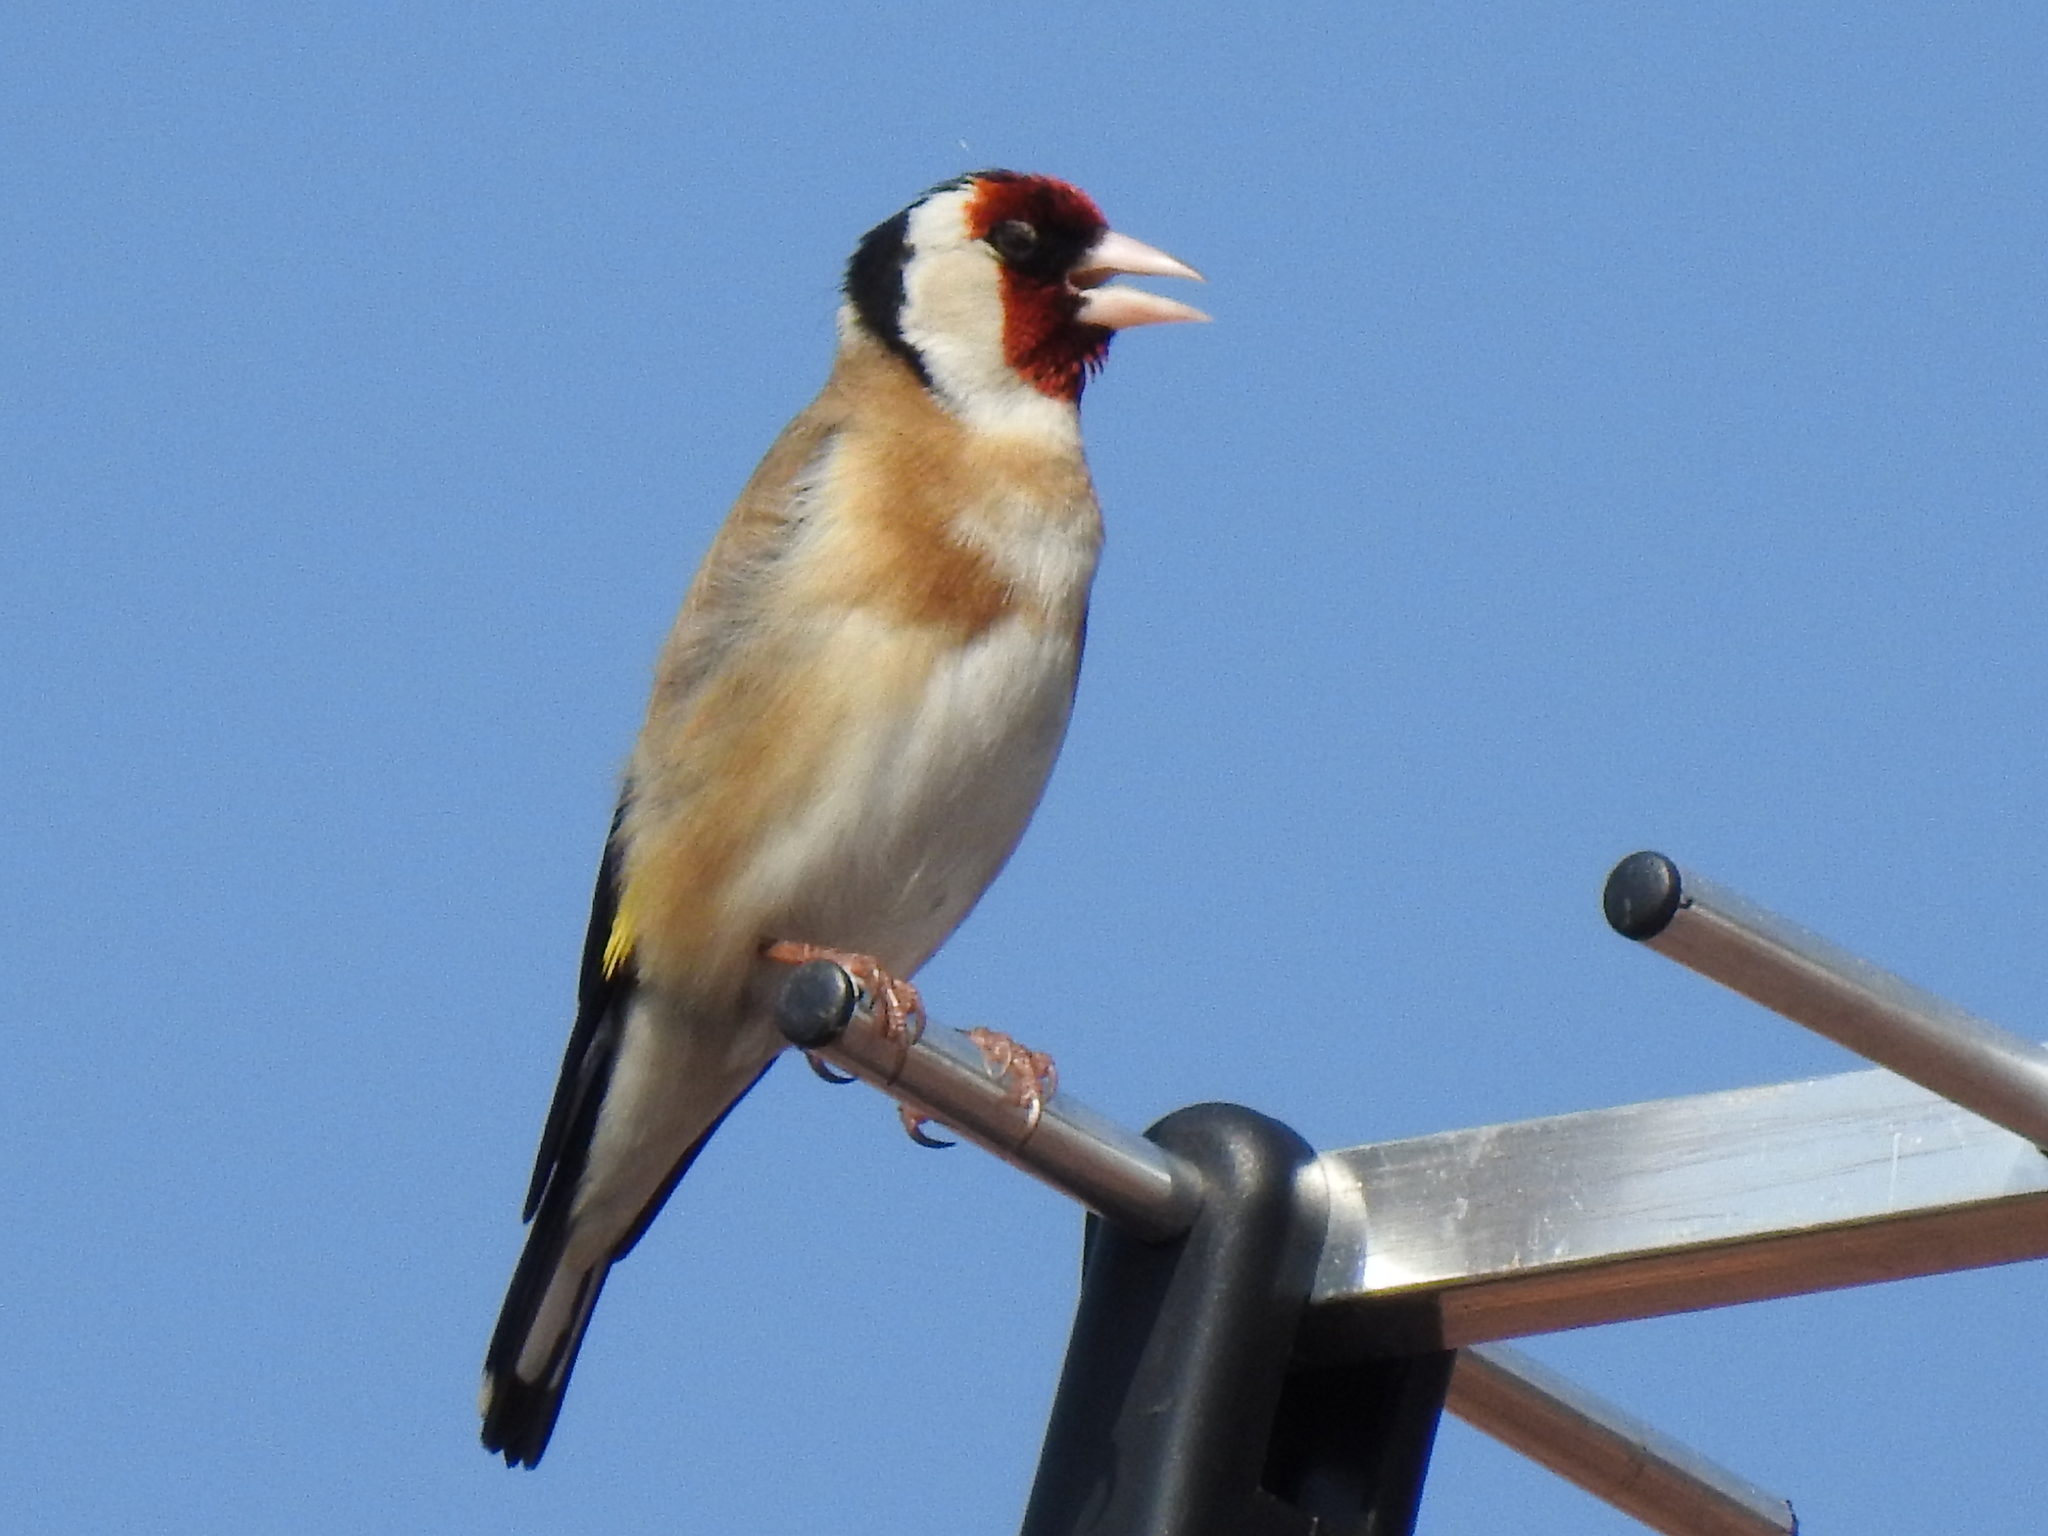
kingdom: Animalia
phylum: Chordata
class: Aves
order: Passeriformes
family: Fringillidae
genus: Carduelis
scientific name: Carduelis carduelis
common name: European goldfinch
